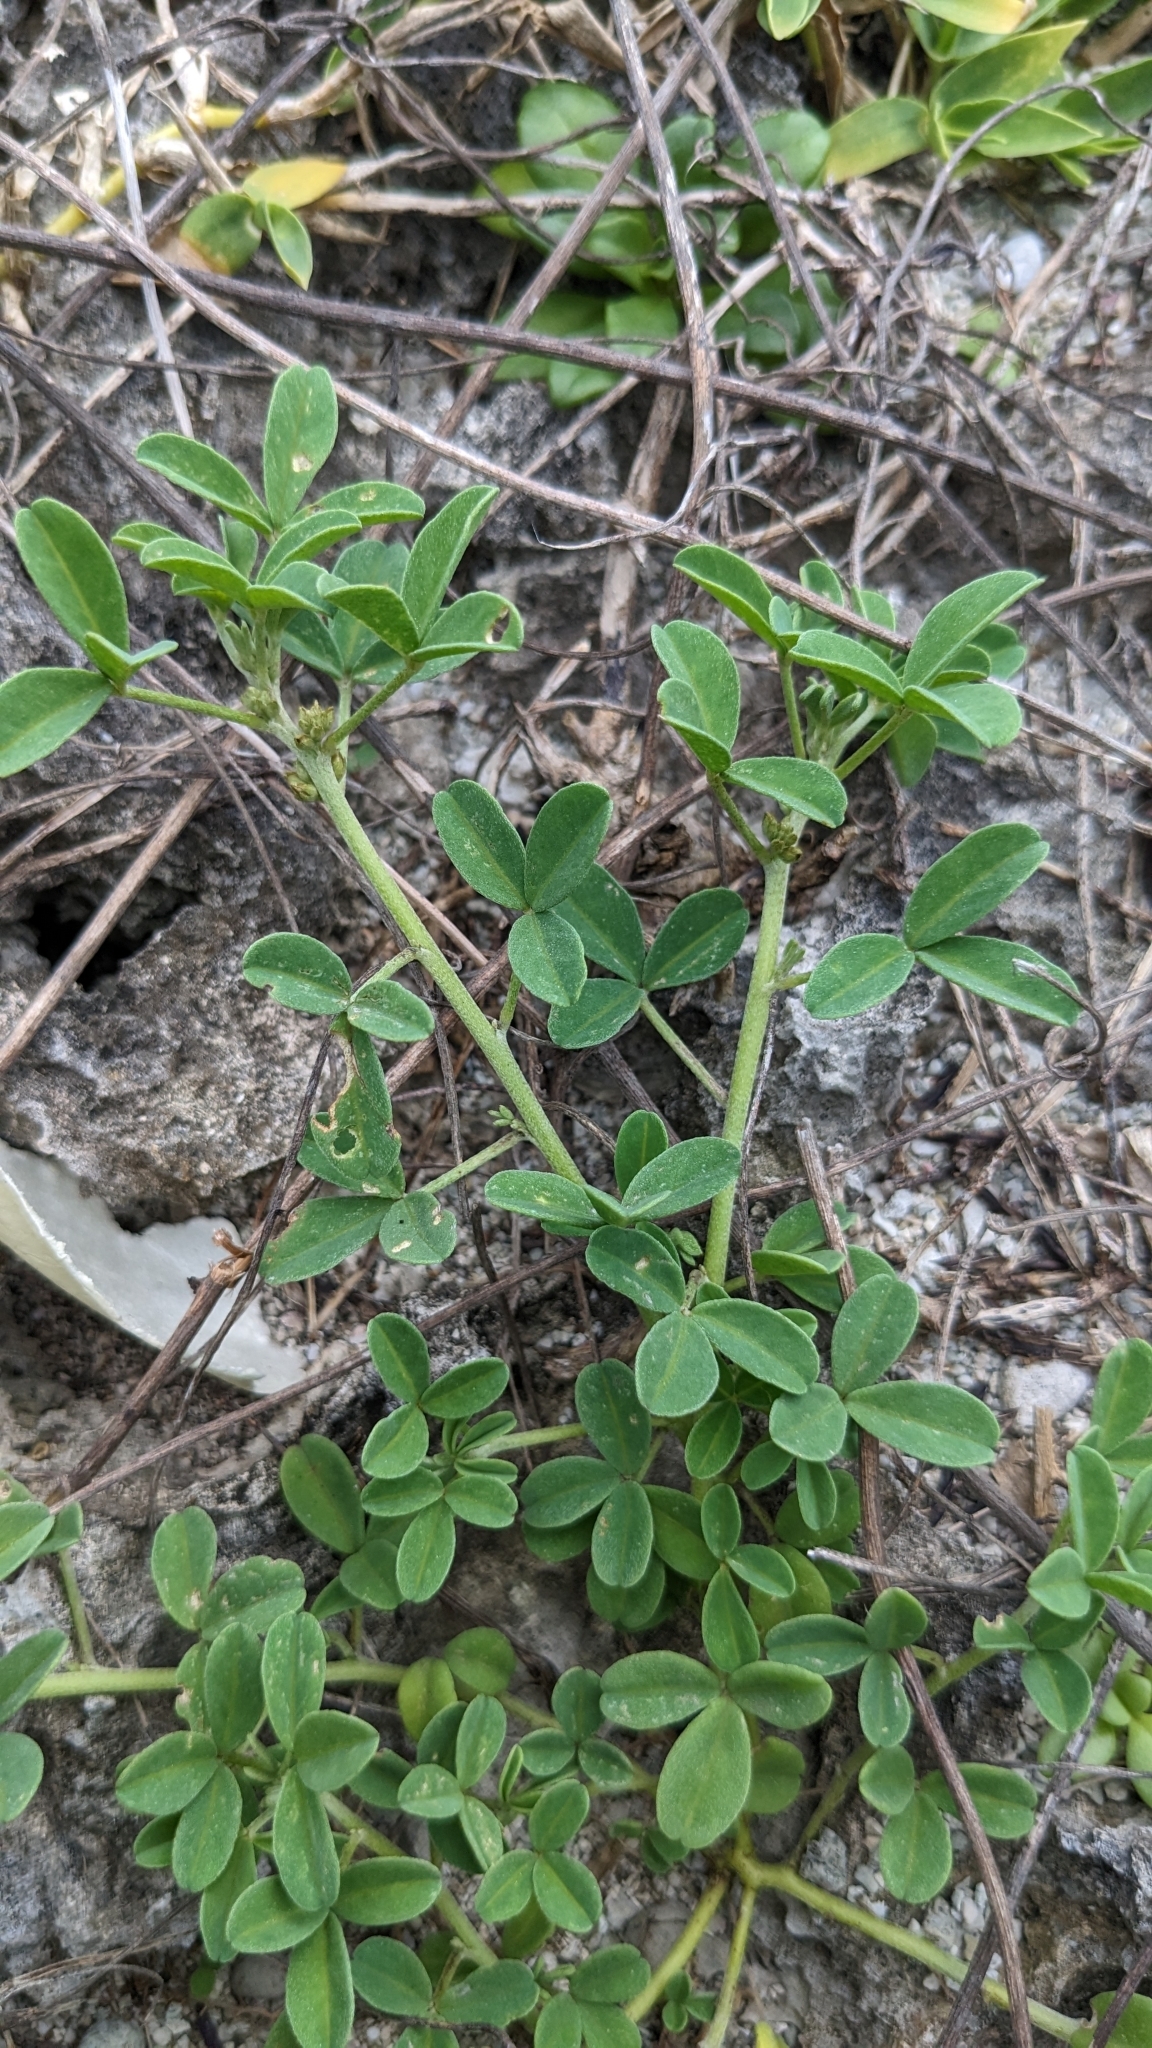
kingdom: Plantae
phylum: Tracheophyta
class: Magnoliopsida
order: Fabales
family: Fabaceae
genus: Indigofera
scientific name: Indigofera trifoliata
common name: Threeleaf indigo
